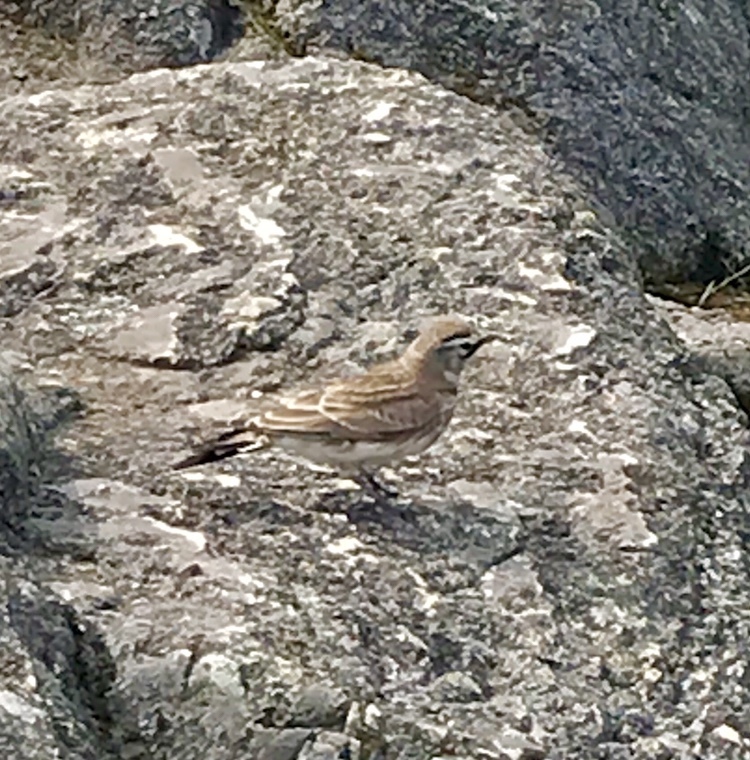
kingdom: Animalia
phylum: Chordata
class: Aves
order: Passeriformes
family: Alaudidae
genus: Eremophila
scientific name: Eremophila alpestris
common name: Horned lark
